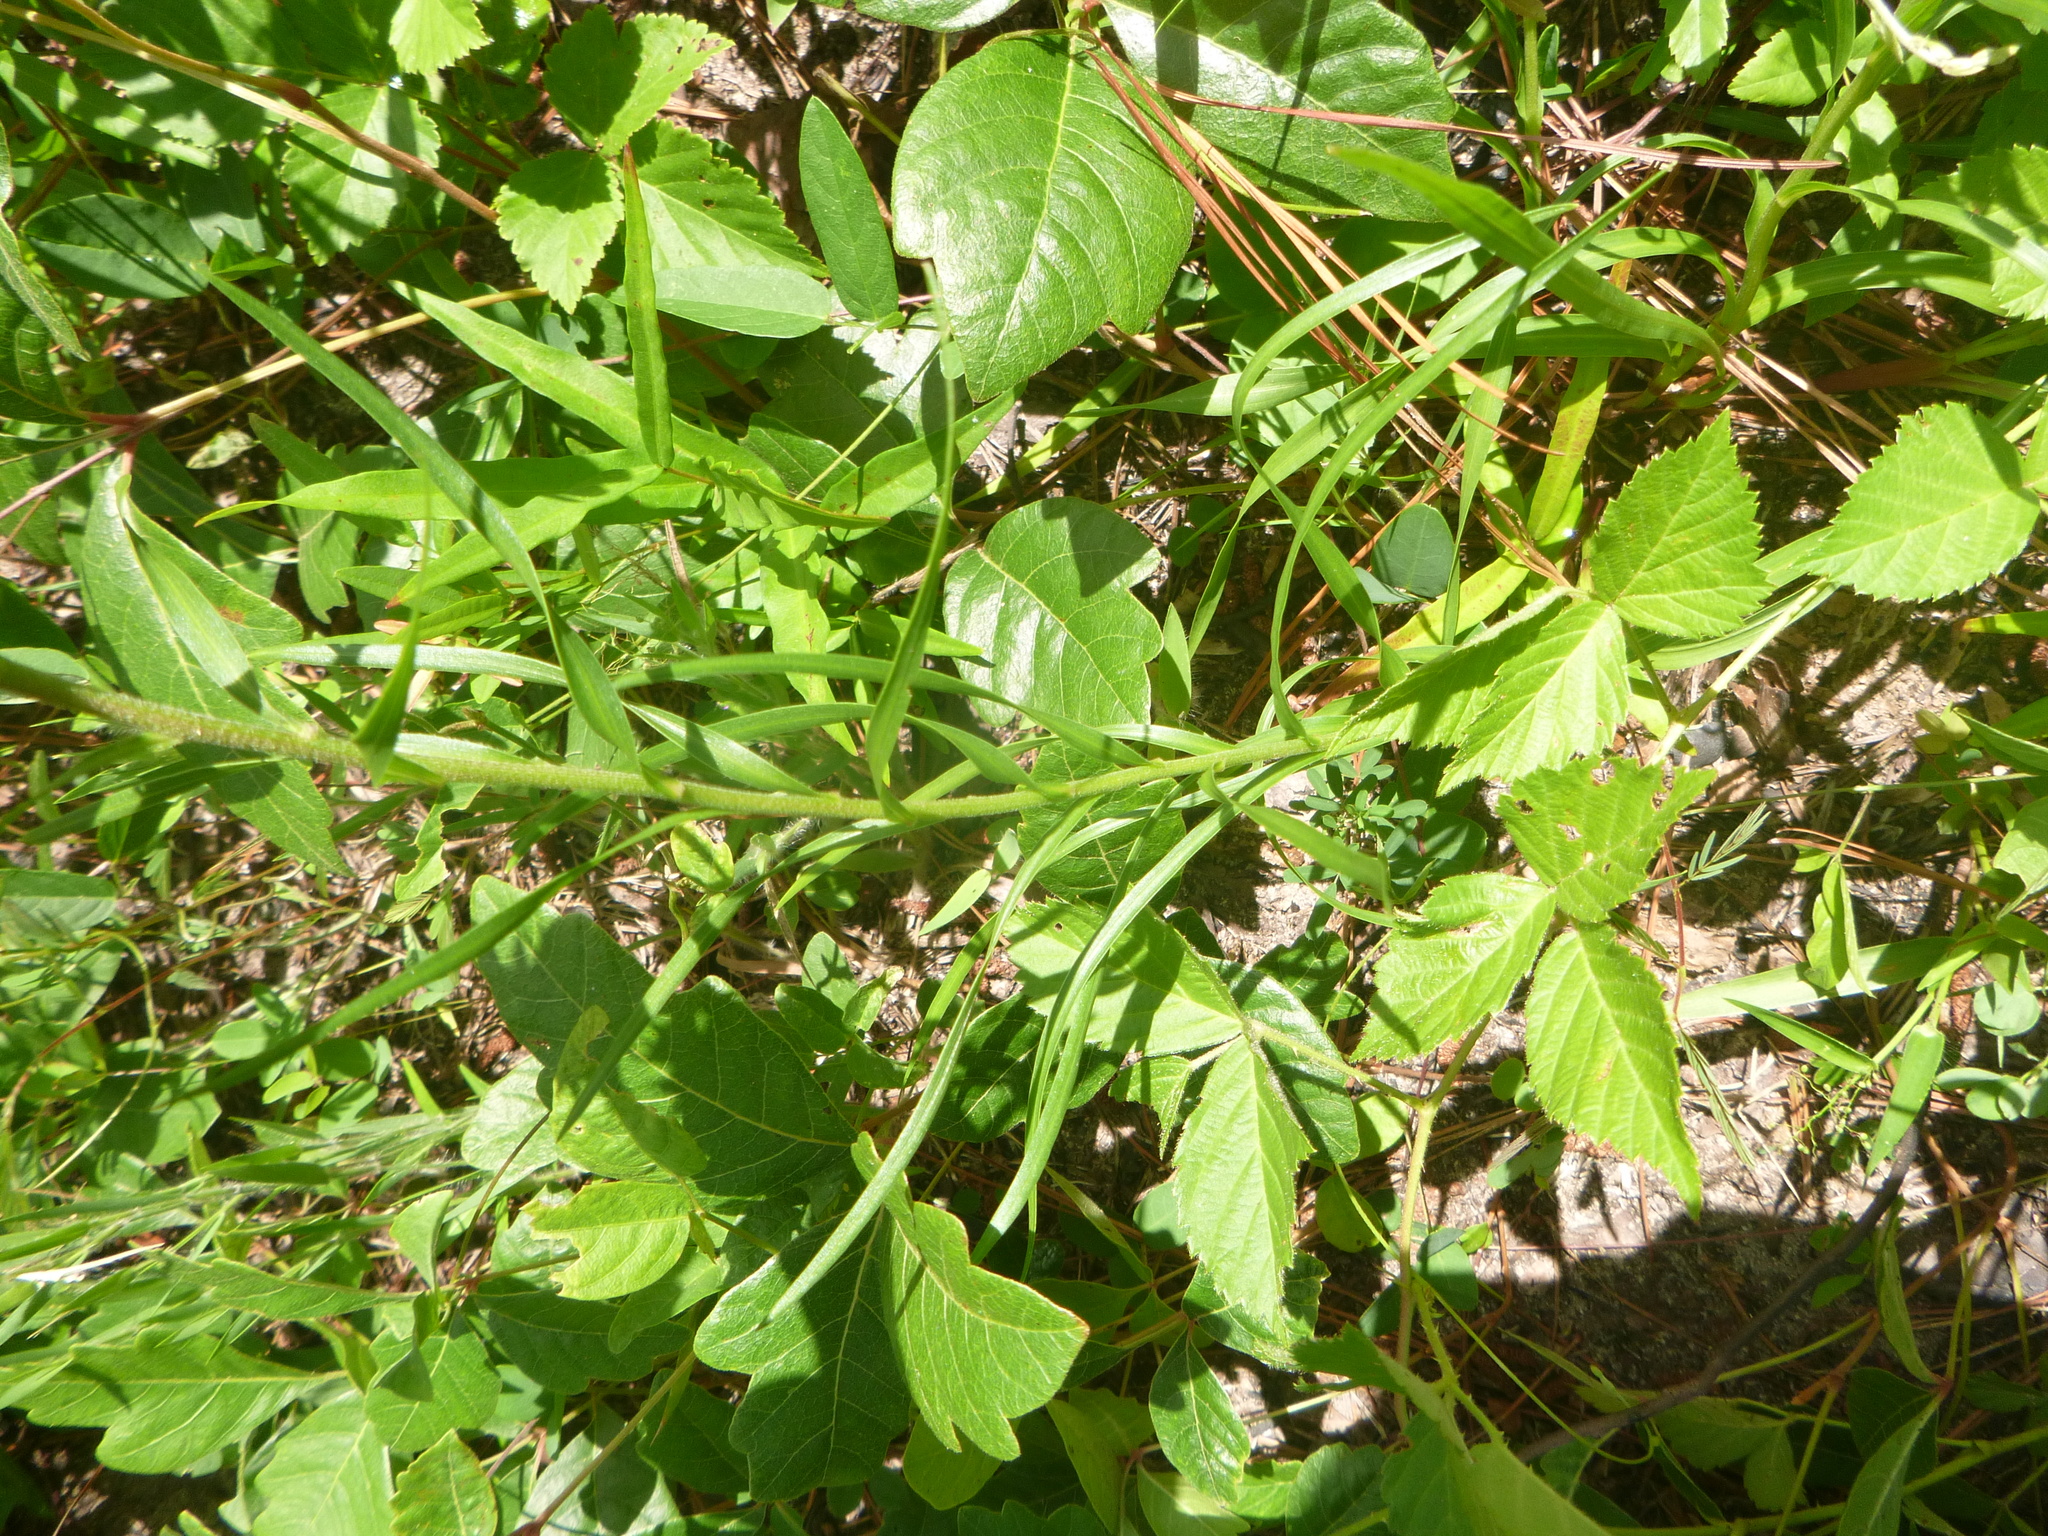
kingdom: Plantae
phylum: Tracheophyta
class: Magnoliopsida
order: Asterales
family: Asteraceae
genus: Liatris
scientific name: Liatris squarrosa
